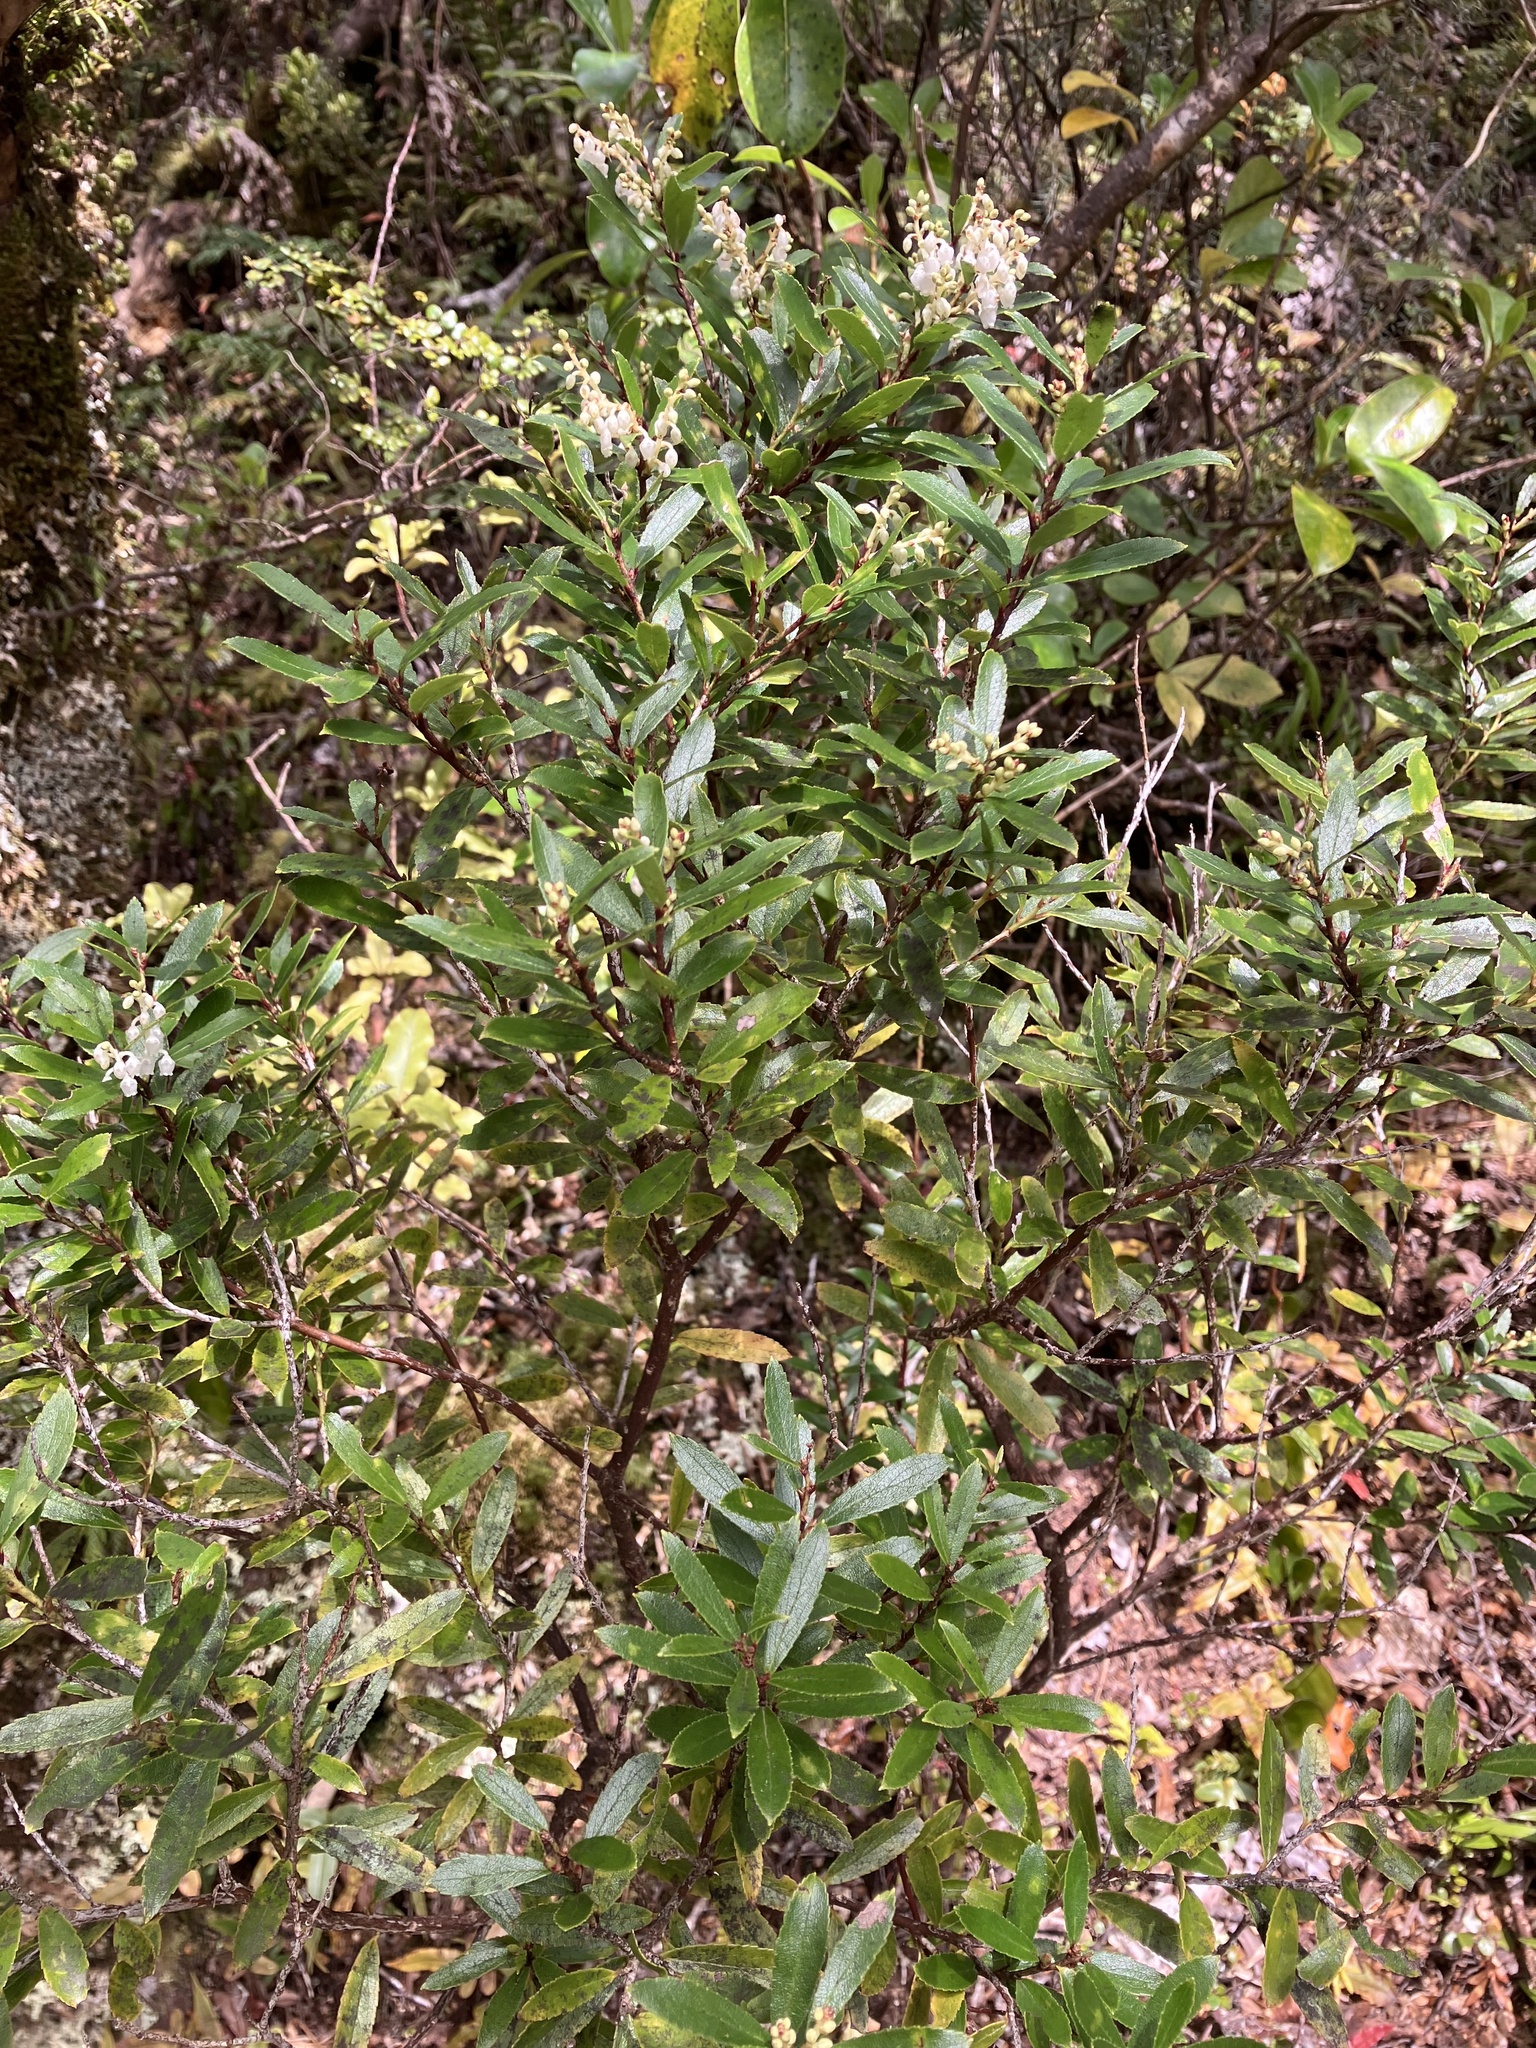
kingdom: Plantae
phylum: Tracheophyta
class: Magnoliopsida
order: Ericales
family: Ericaceae
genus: Gaultheria
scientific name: Gaultheria rupestris
